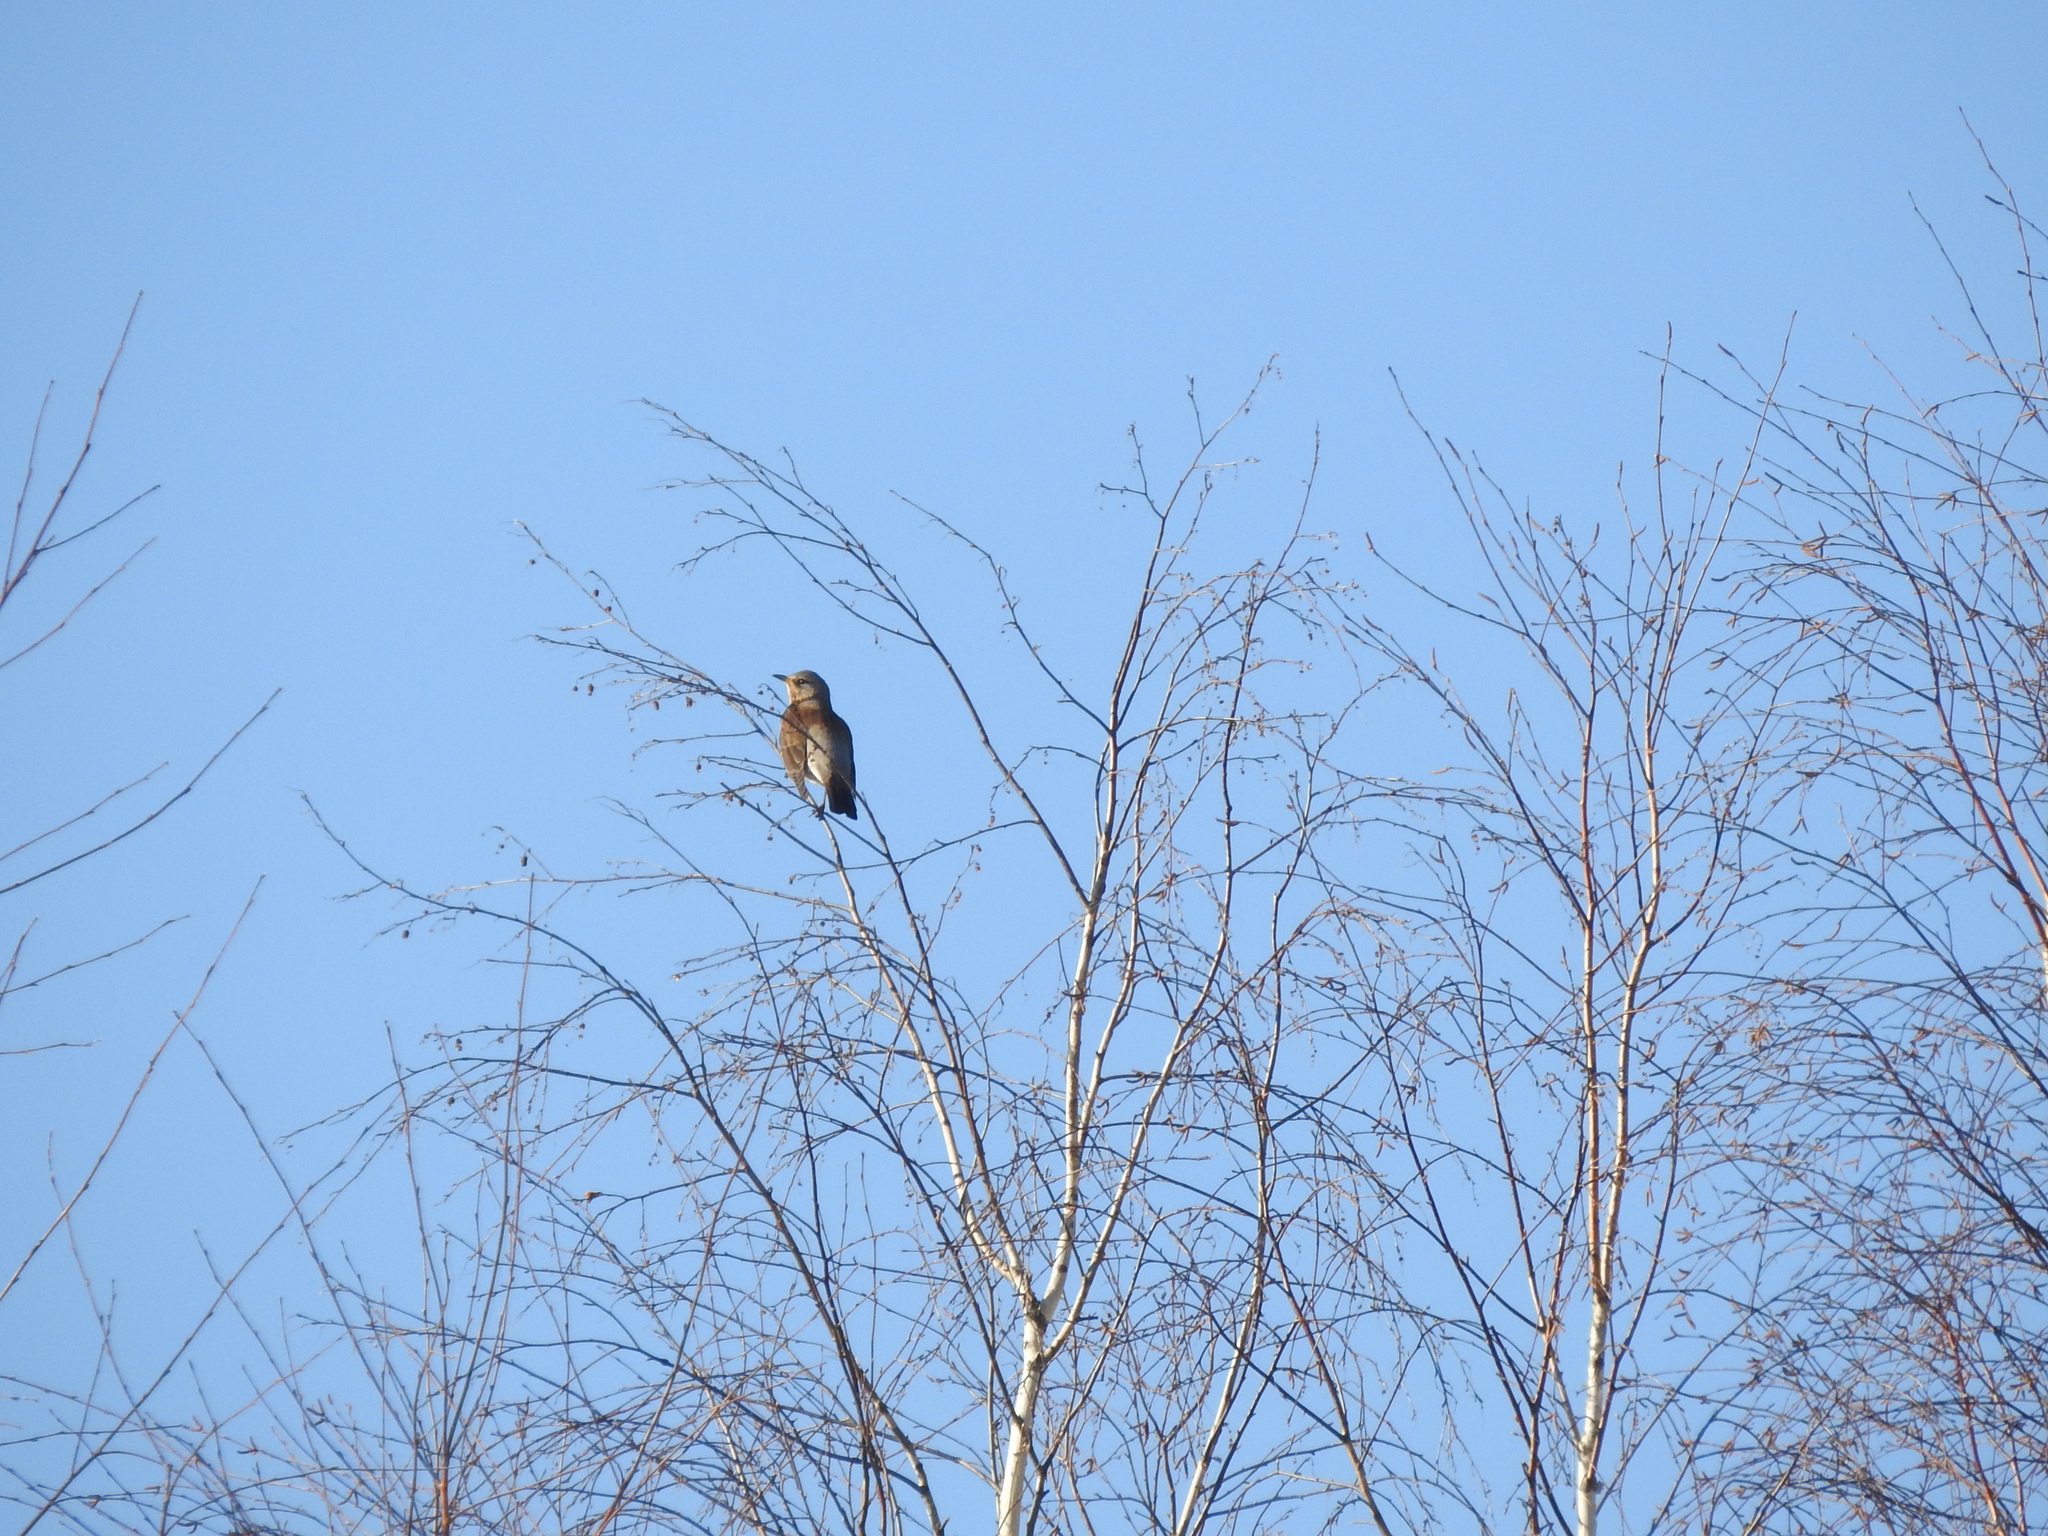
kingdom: Animalia
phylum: Chordata
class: Aves
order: Passeriformes
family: Turdidae
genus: Turdus
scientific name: Turdus pilaris
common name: Fieldfare
